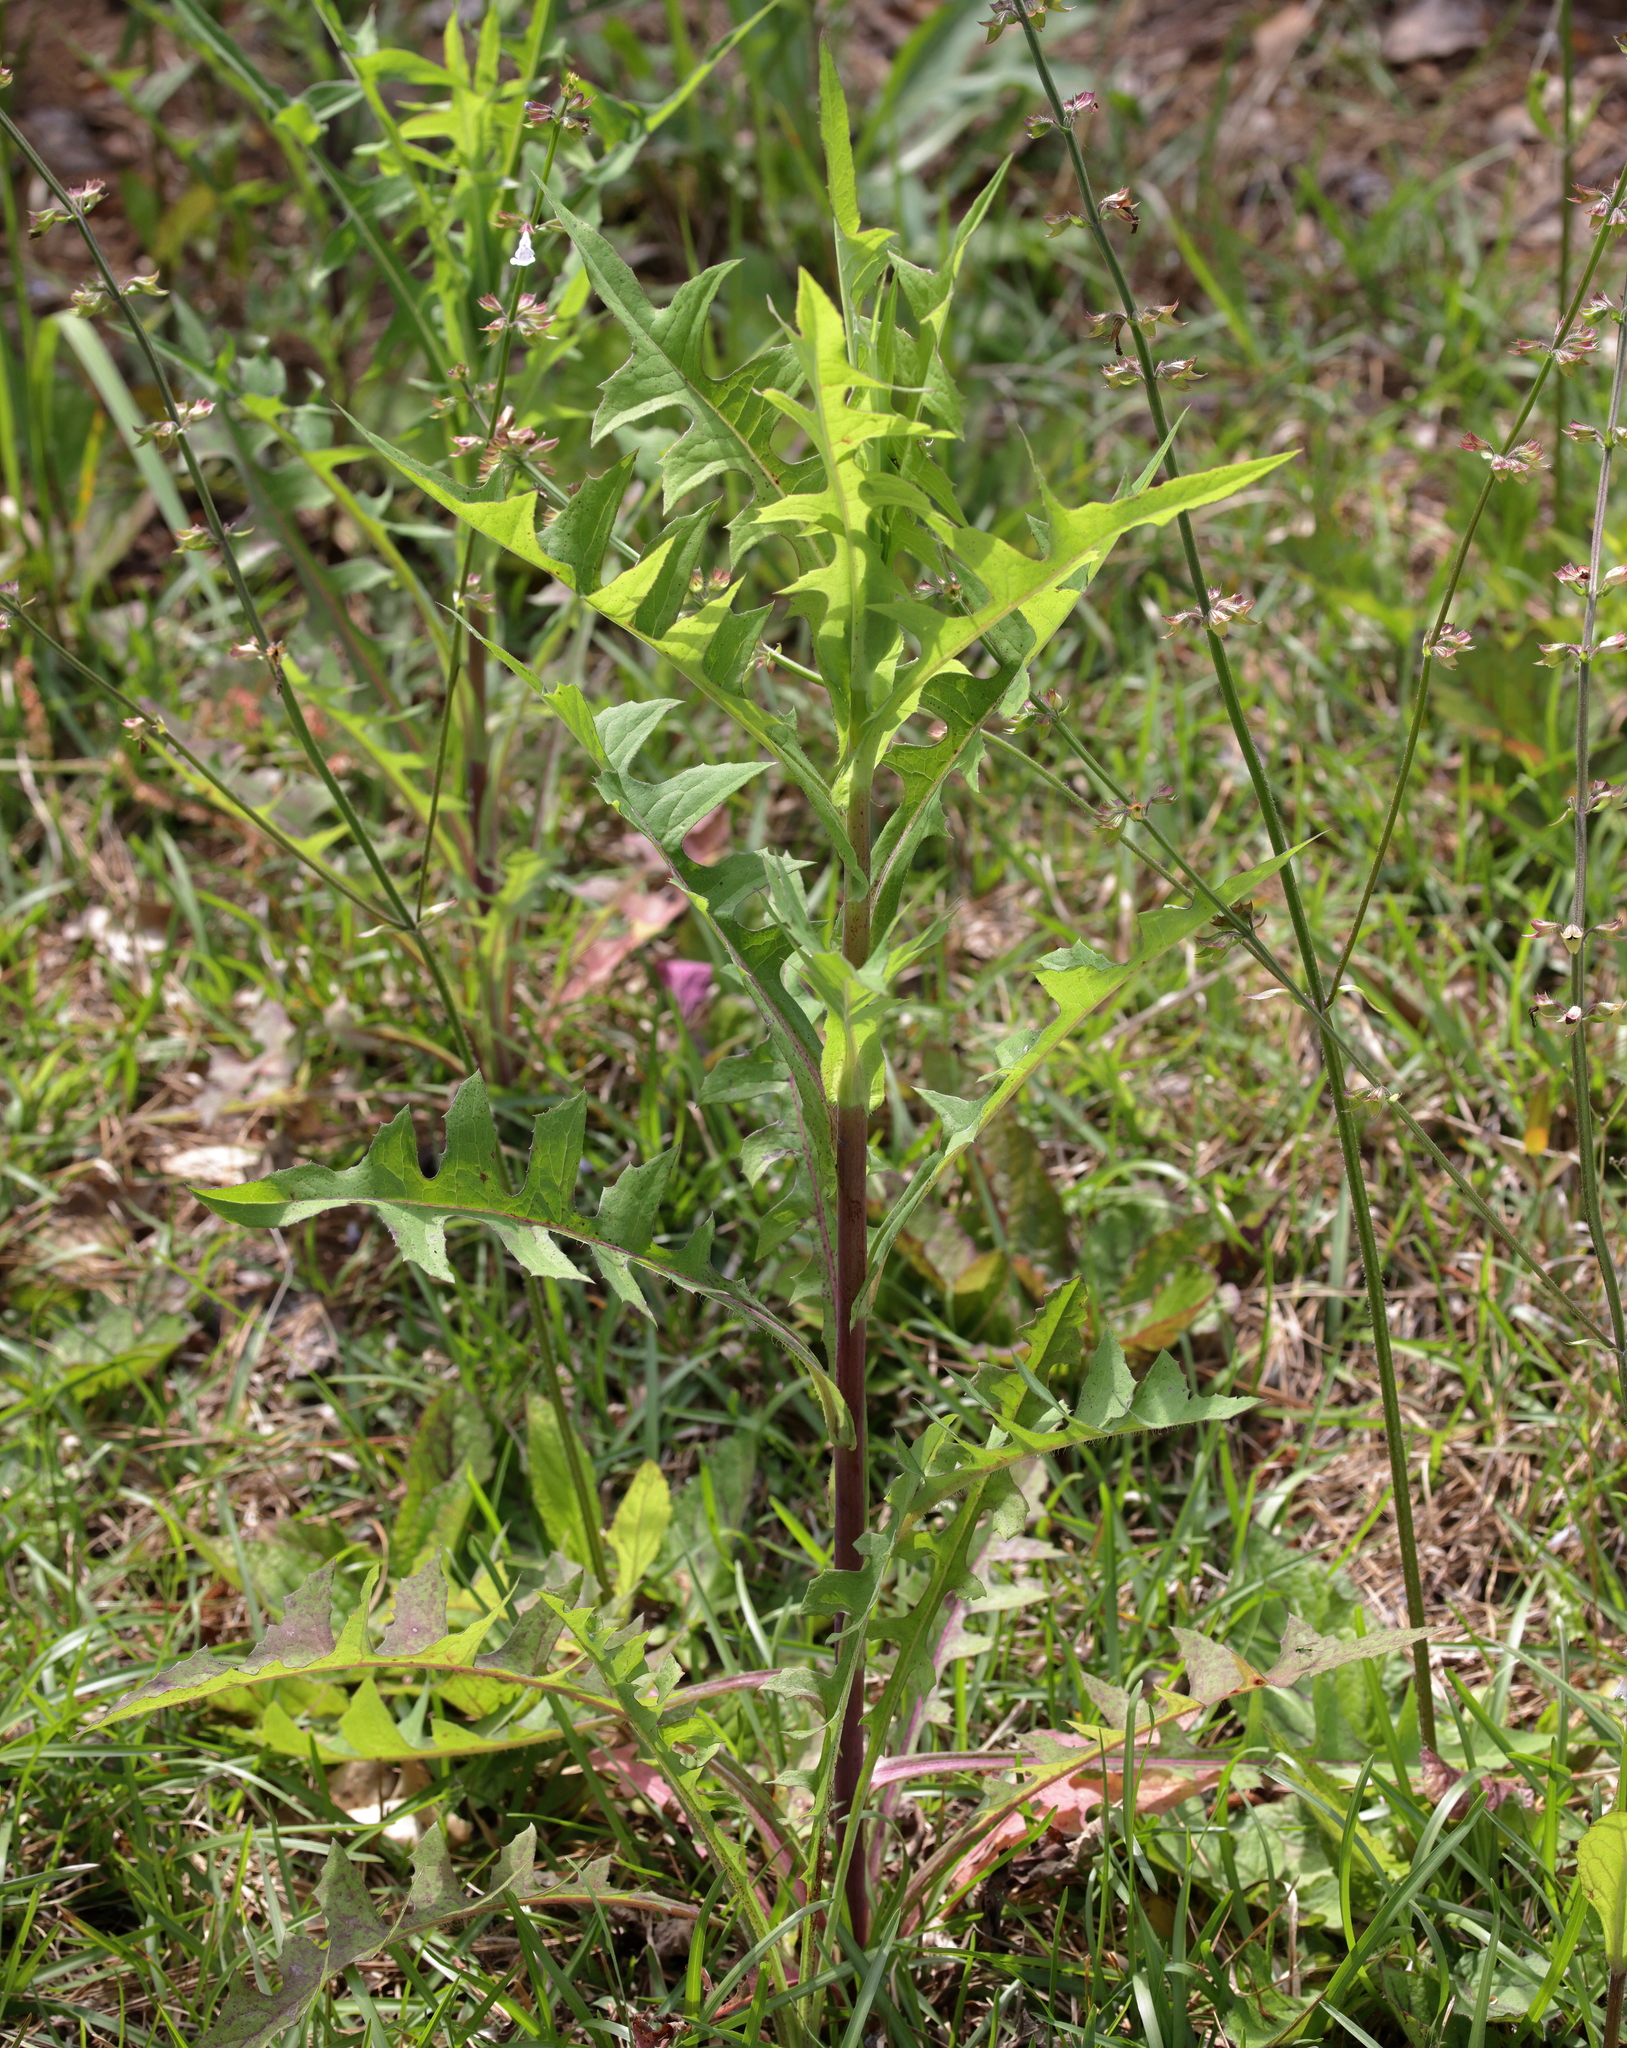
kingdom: Plantae
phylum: Tracheophyta
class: Magnoliopsida
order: Asterales
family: Asteraceae
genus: Lactuca
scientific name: Lactuca canadensis
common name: Canada lettuce
